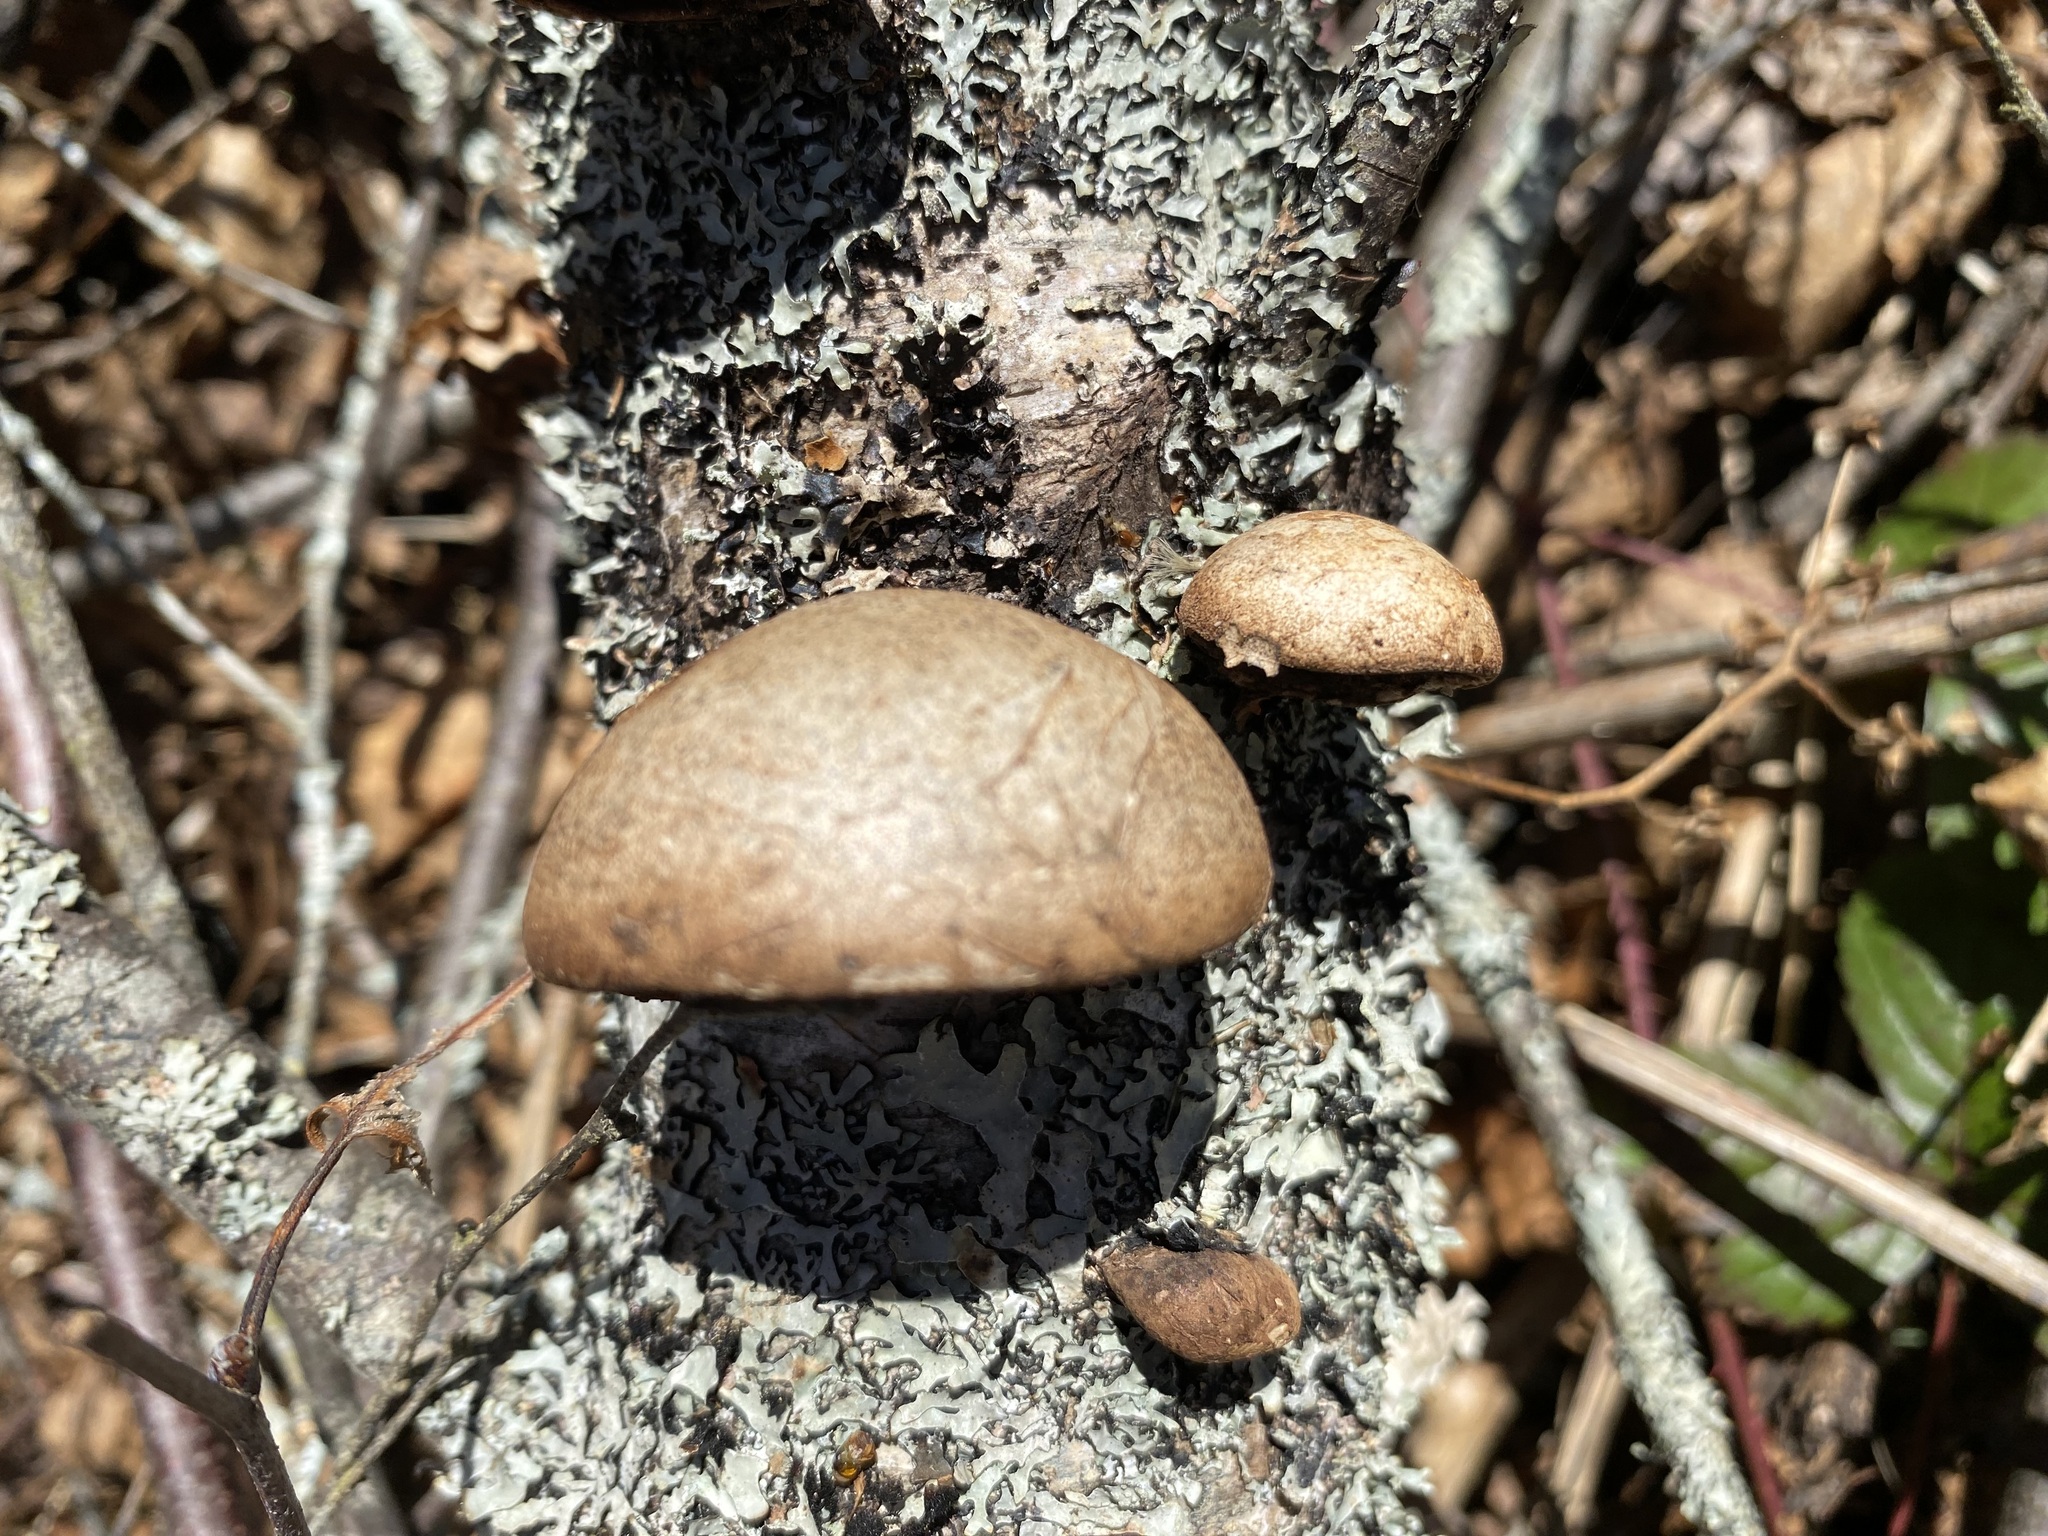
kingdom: Fungi
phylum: Basidiomycota
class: Agaricomycetes
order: Polyporales
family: Fomitopsidaceae
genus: Fomitopsis
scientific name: Fomitopsis betulina
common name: Birch polypore
